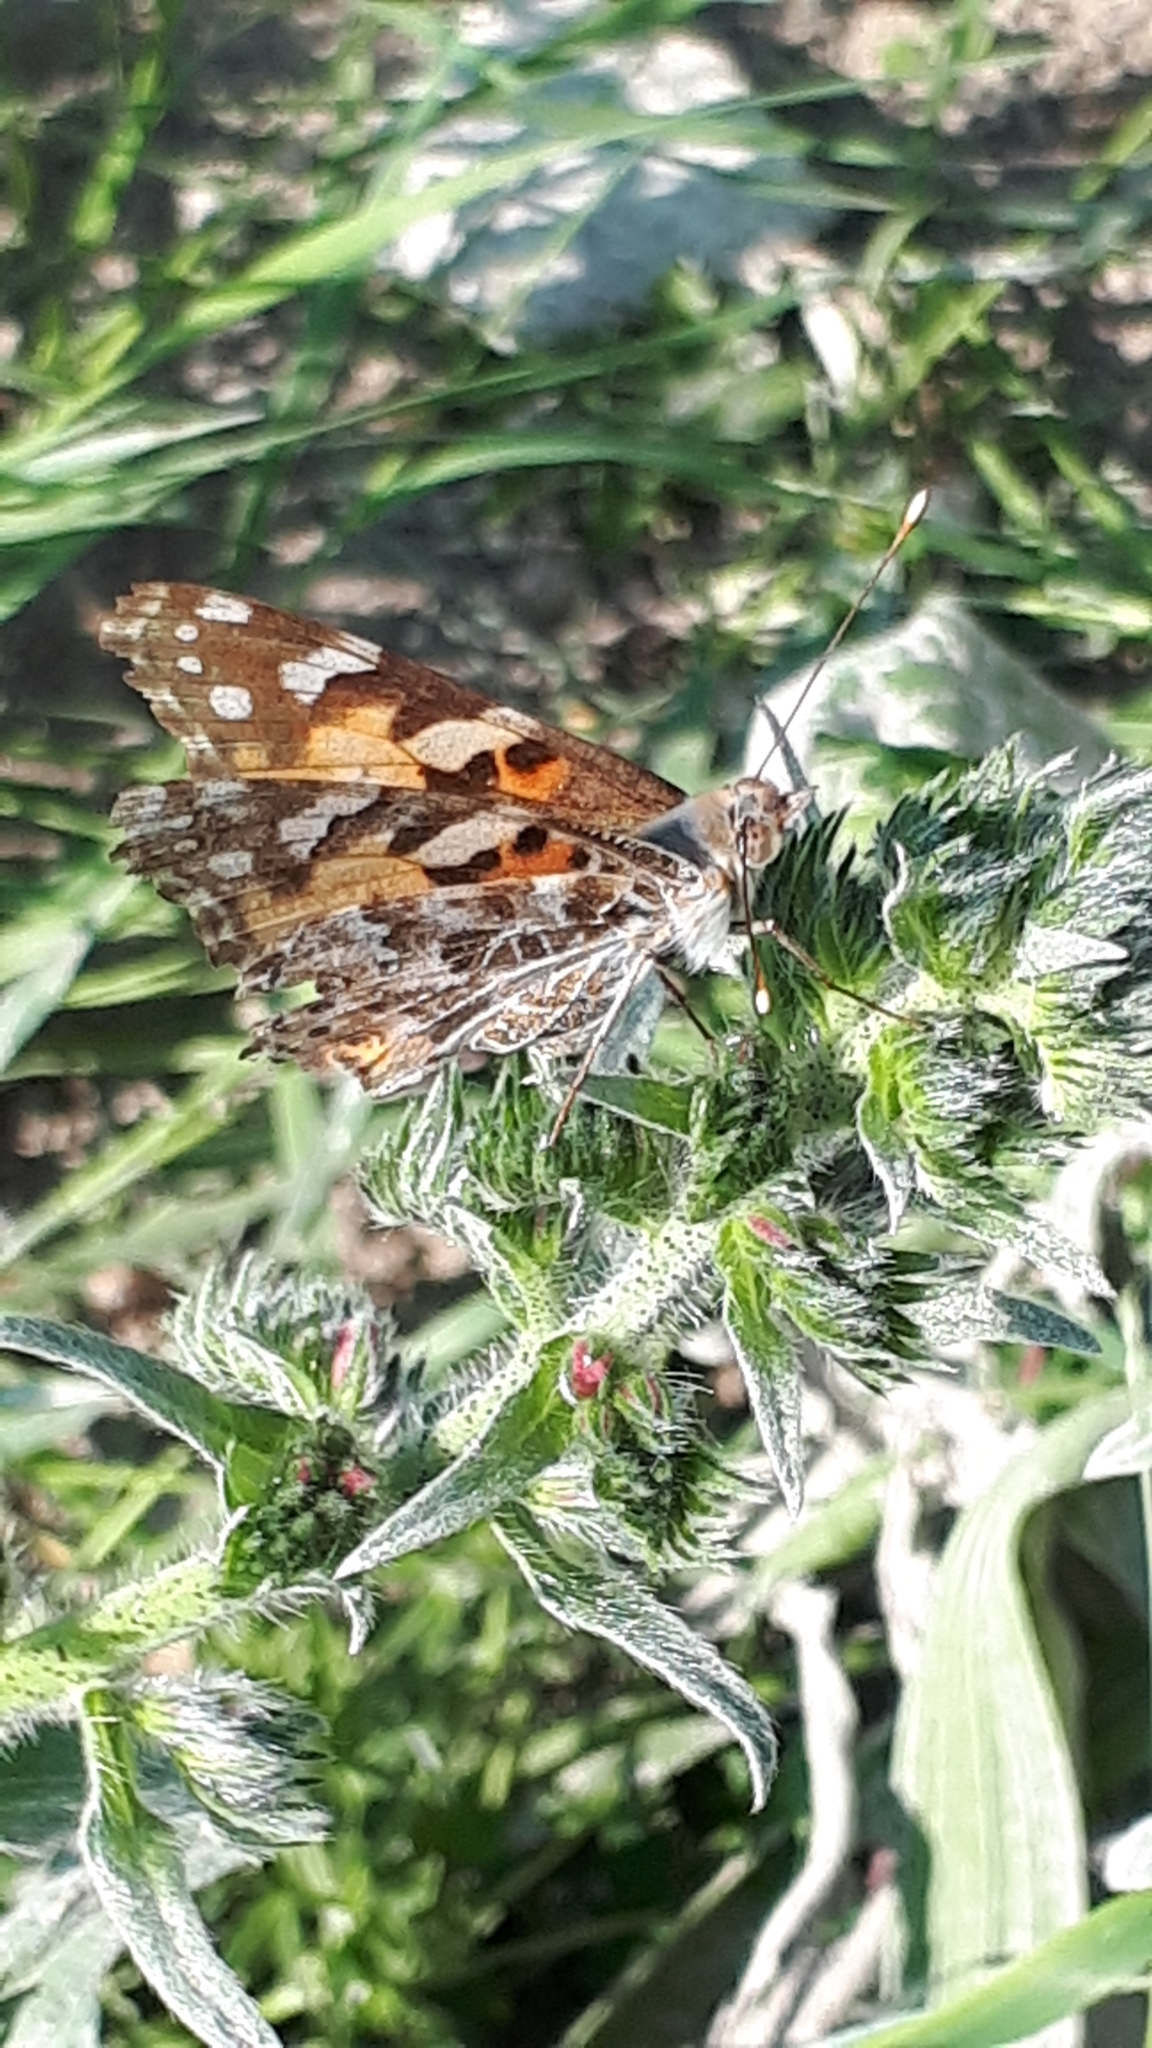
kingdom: Animalia
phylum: Arthropoda
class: Insecta
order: Lepidoptera
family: Nymphalidae
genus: Vanessa
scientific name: Vanessa cardui
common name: Painted lady
